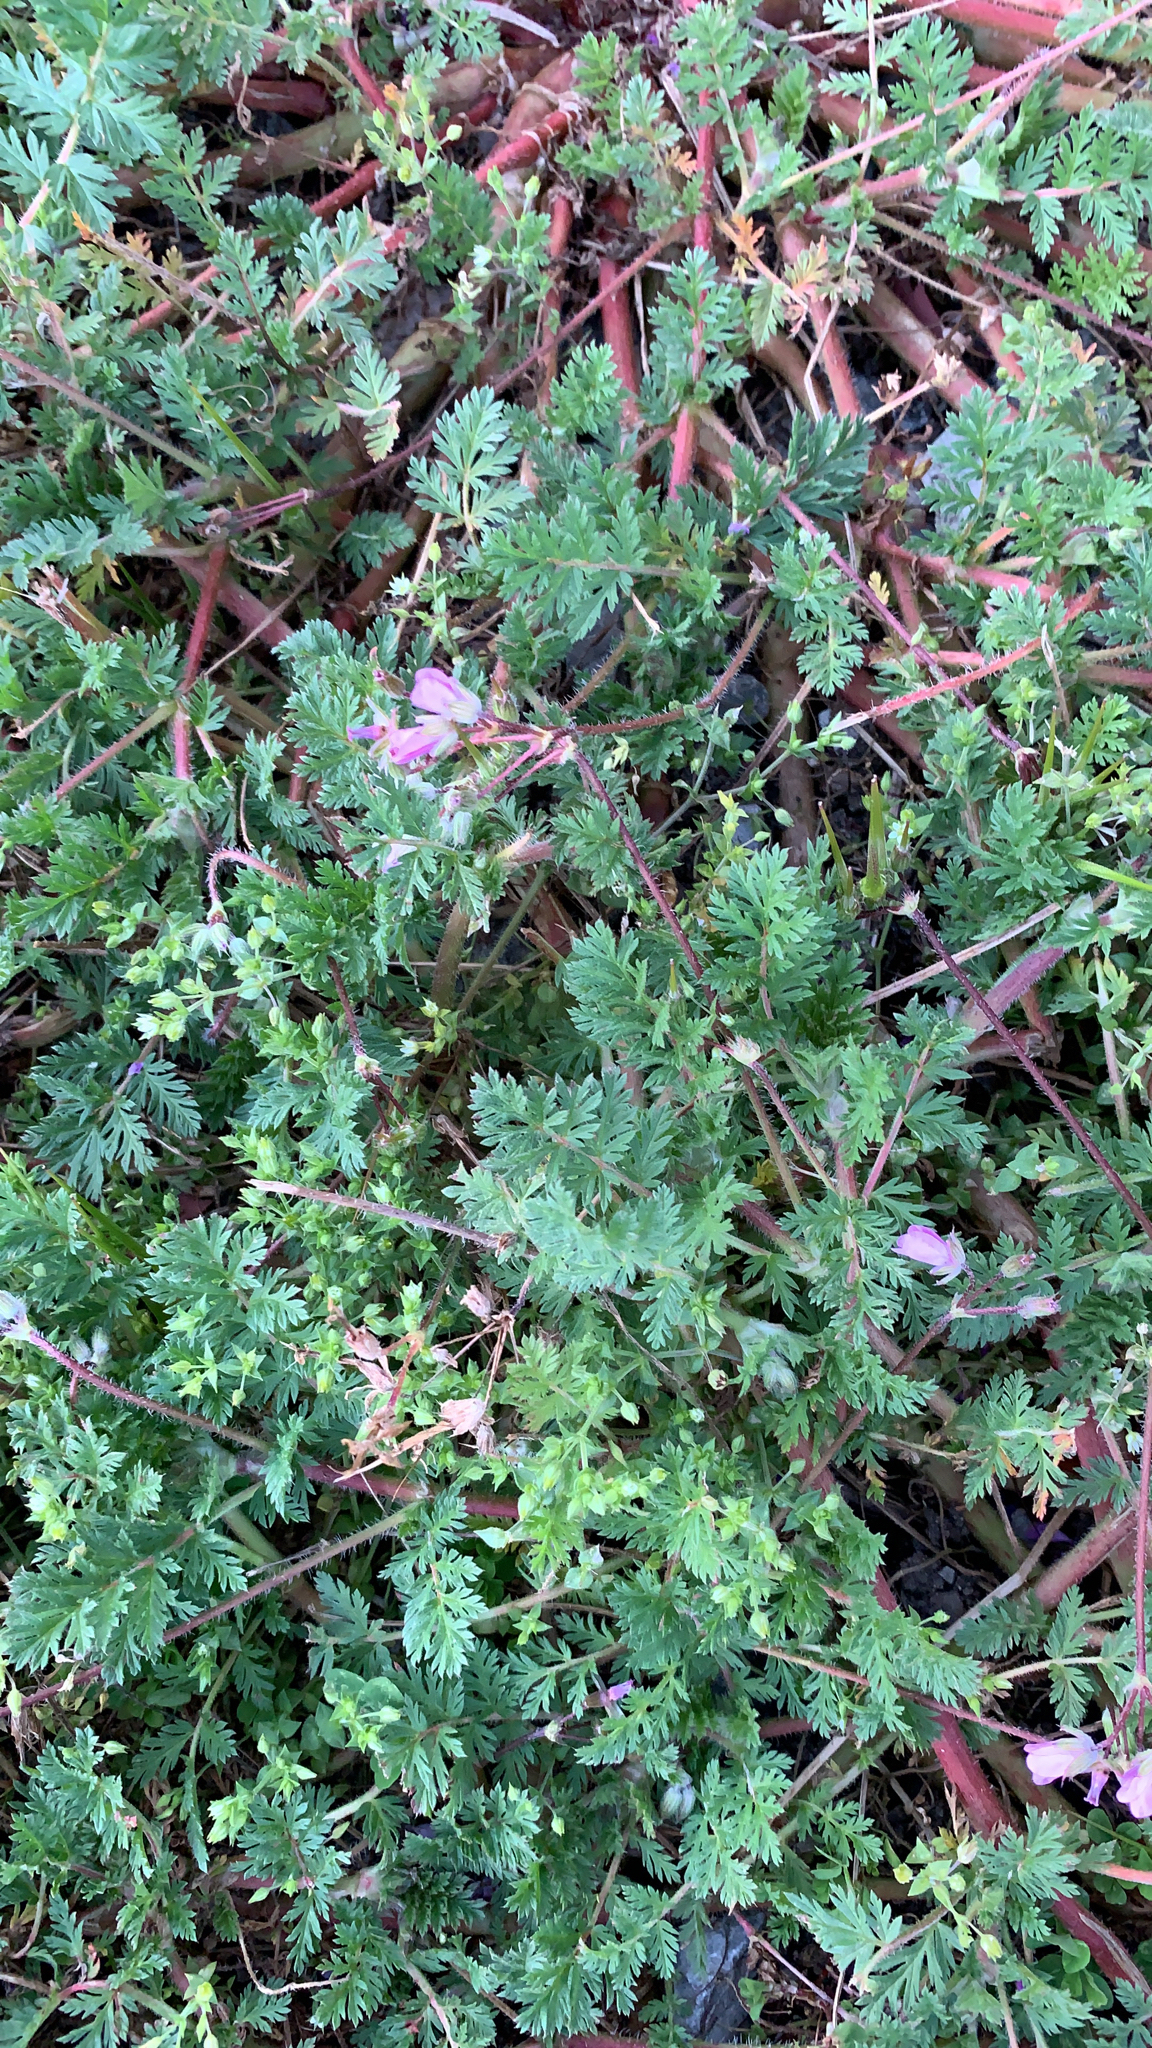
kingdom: Plantae
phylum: Tracheophyta
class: Magnoliopsida
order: Geraniales
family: Geraniaceae
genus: Erodium
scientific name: Erodium cicutarium
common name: Common stork's-bill
